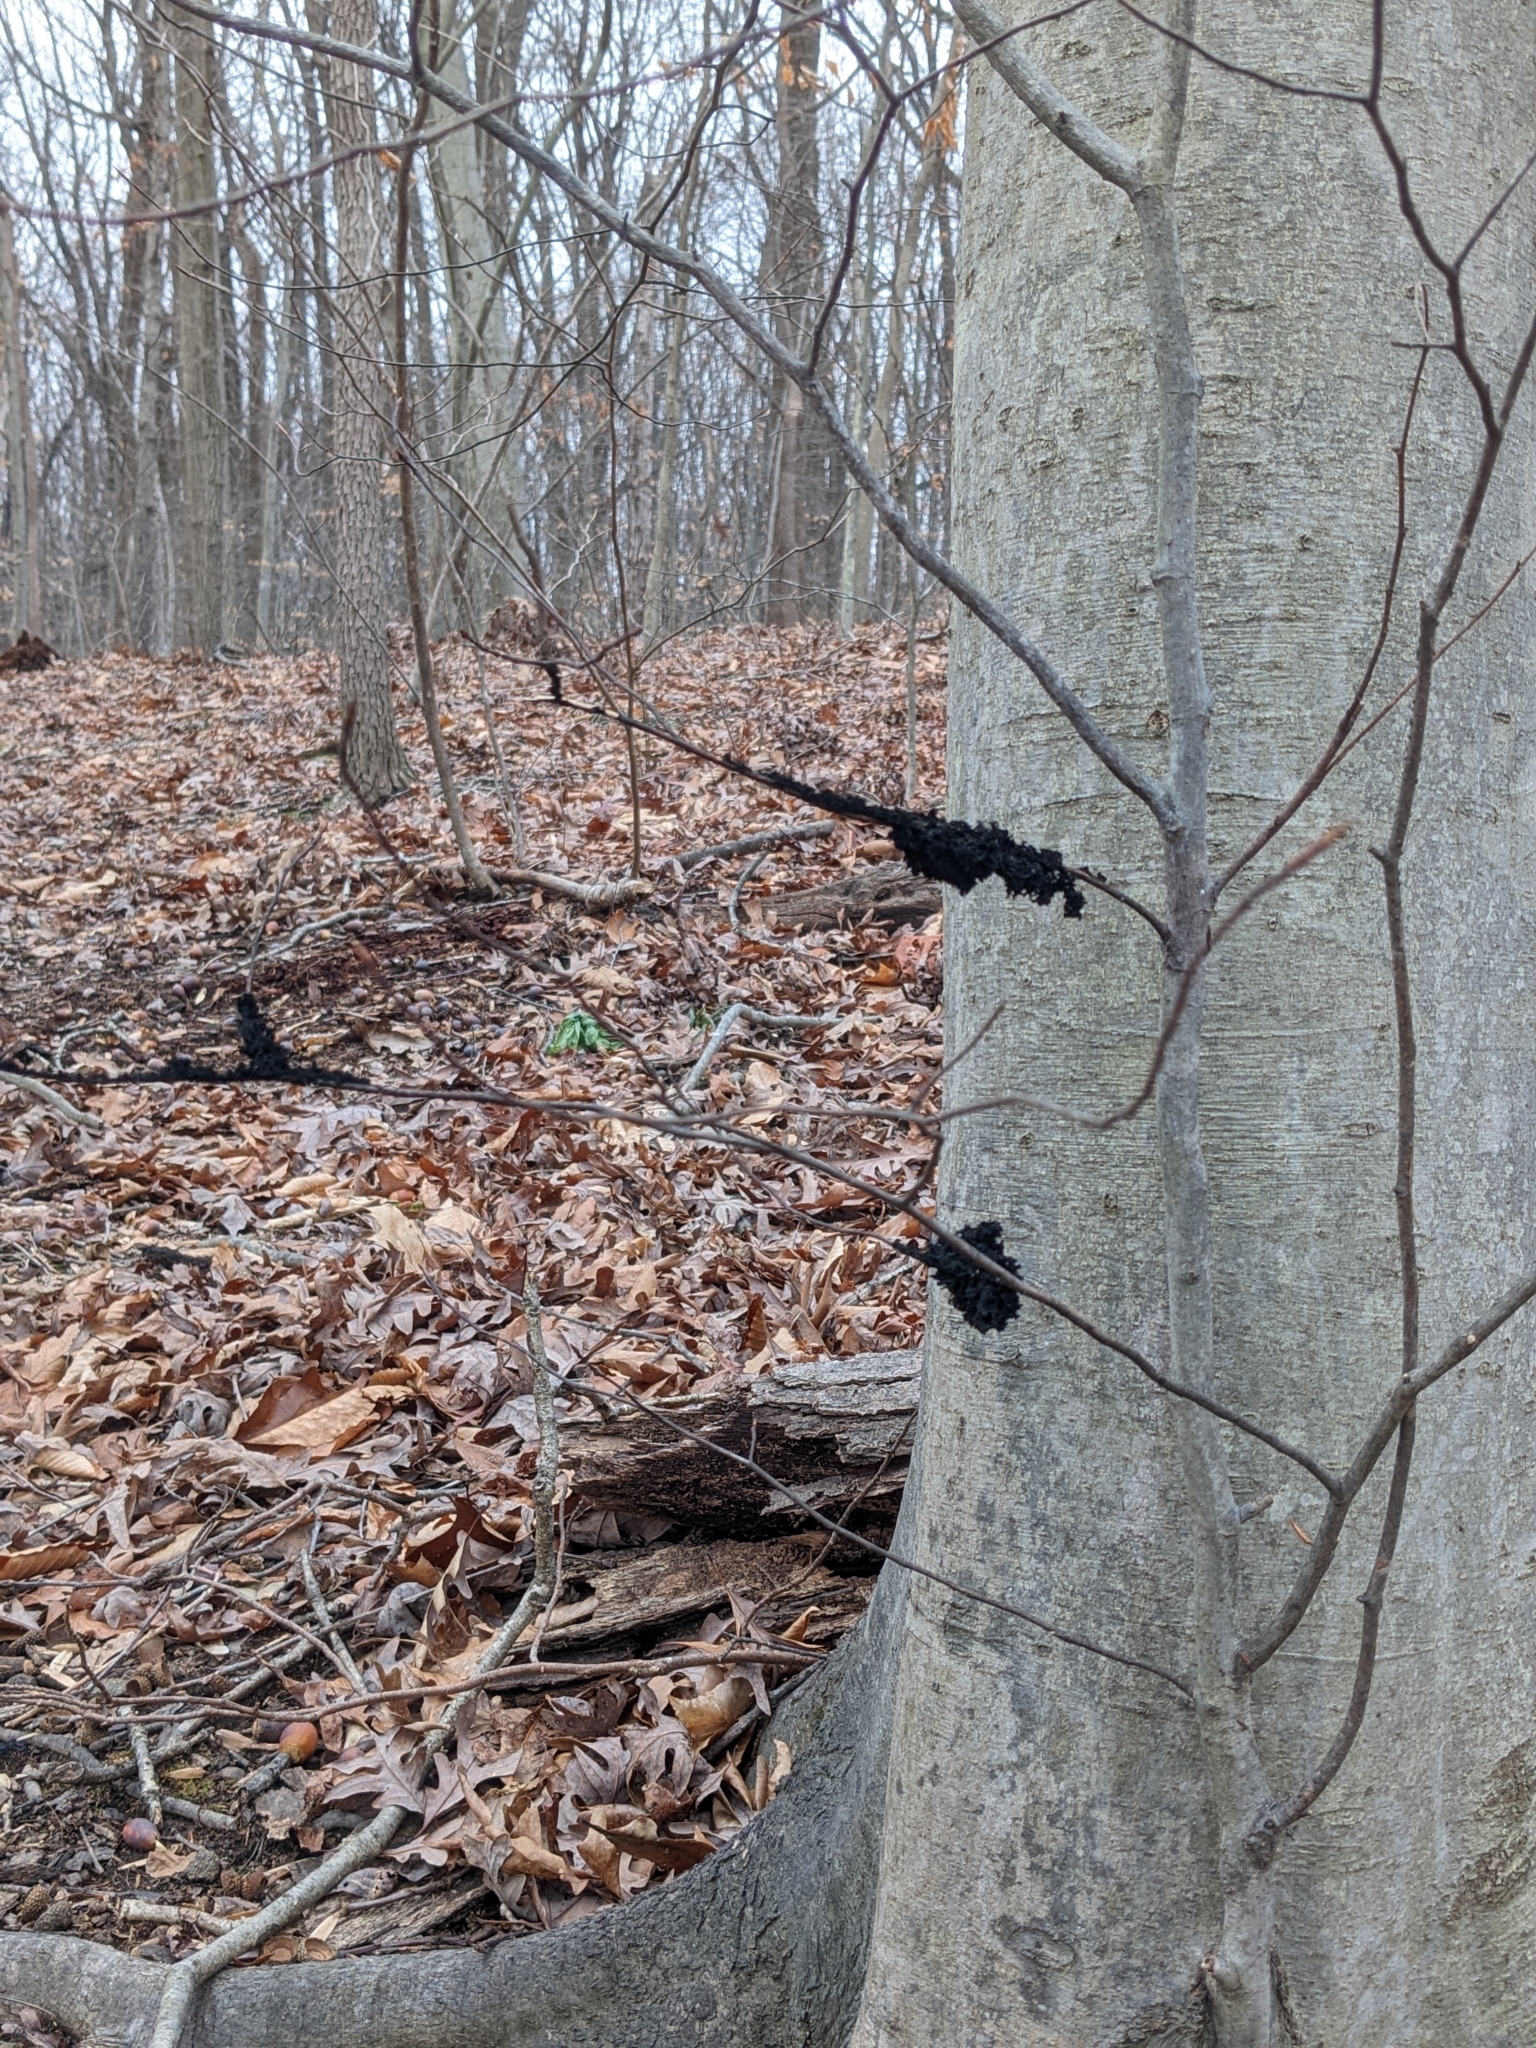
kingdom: Fungi
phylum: Ascomycota
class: Dothideomycetes
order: Capnodiales
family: Capnodiaceae
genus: Scorias
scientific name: Scorias spongiosa
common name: Black sooty mold
